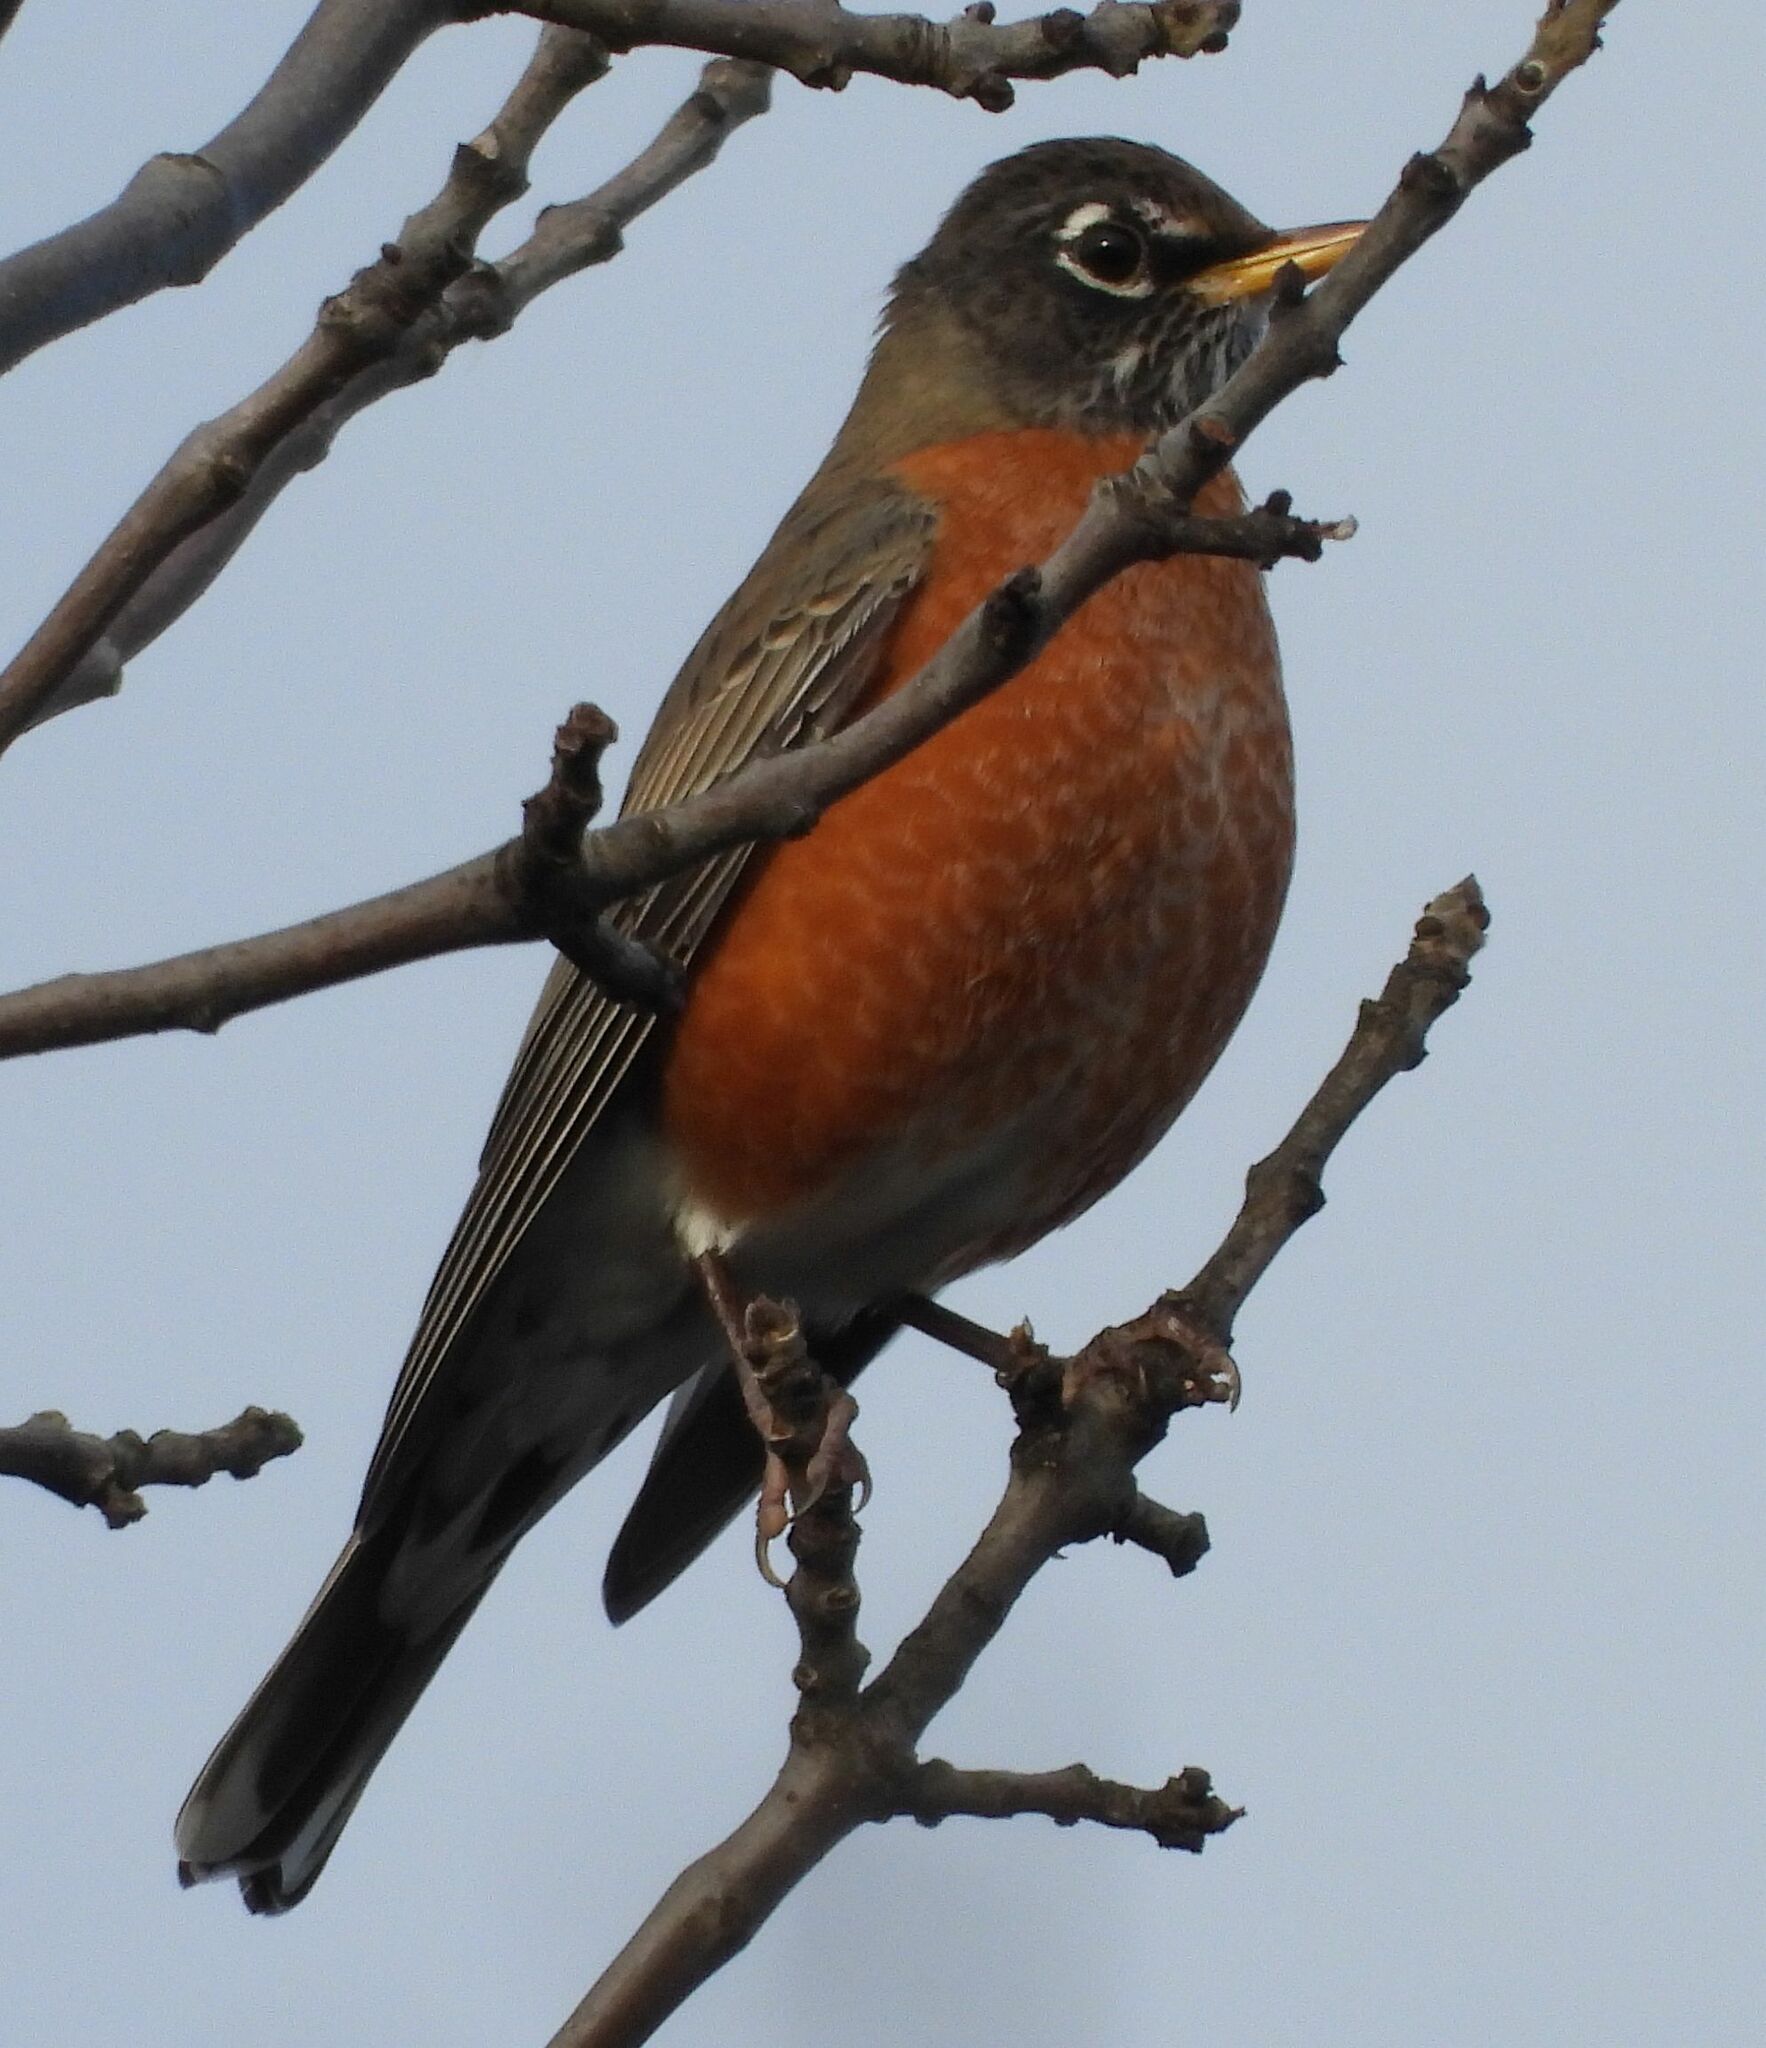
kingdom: Animalia
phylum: Chordata
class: Aves
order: Passeriformes
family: Turdidae
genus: Turdus
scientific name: Turdus migratorius
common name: American robin
